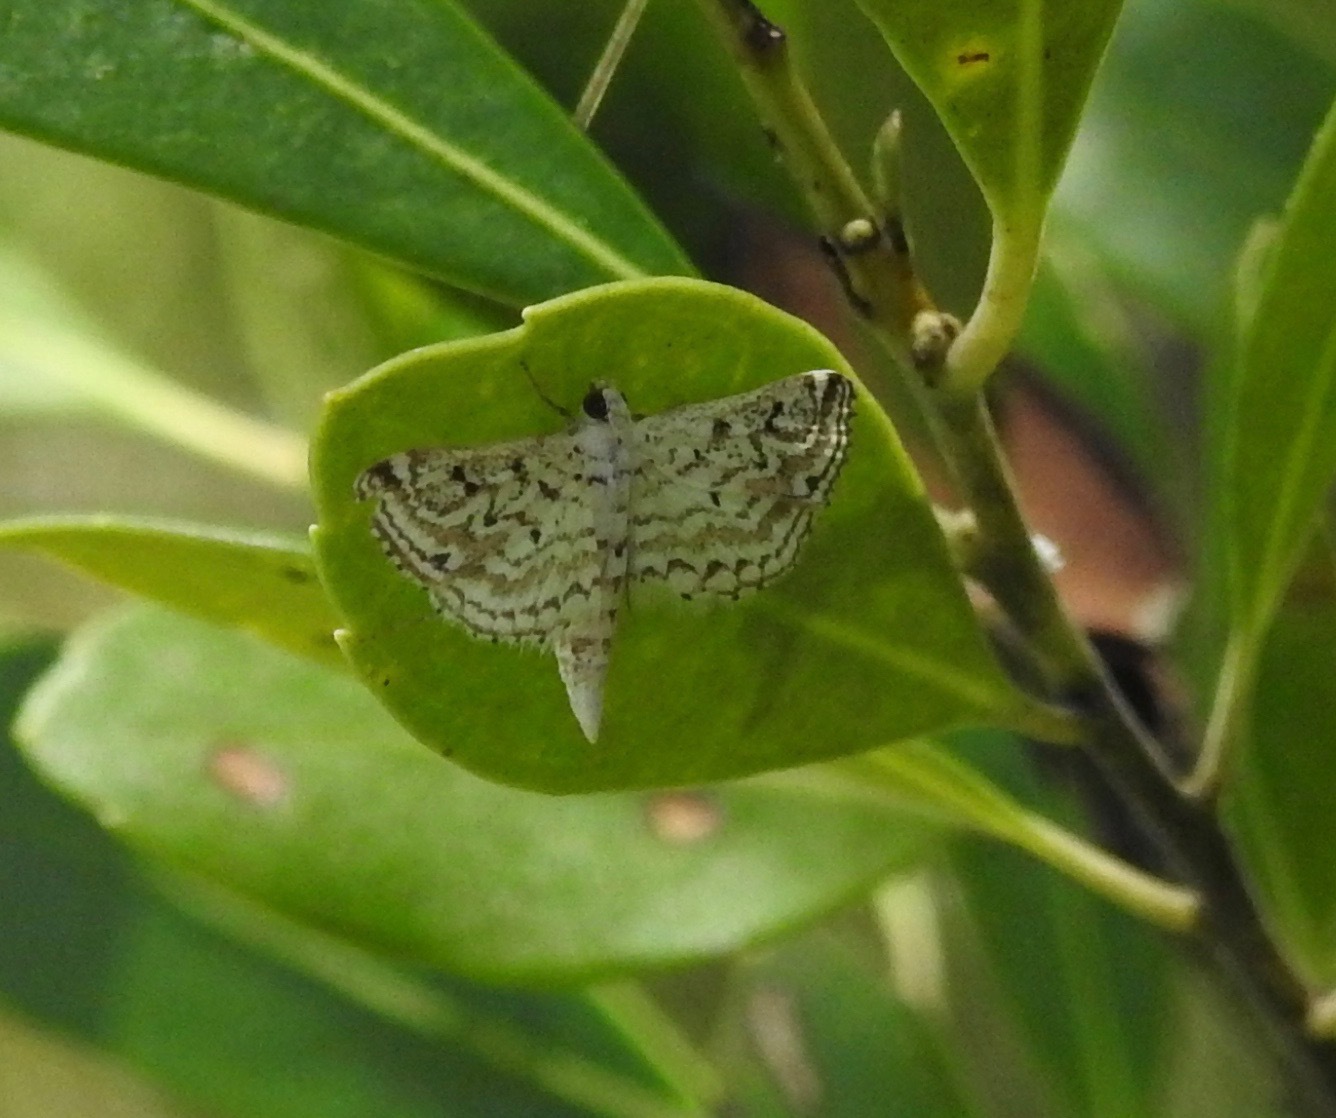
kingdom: Animalia
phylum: Arthropoda
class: Insecta
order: Lepidoptera
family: Crambidae
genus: Parapoynx
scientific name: Parapoynx allionealis
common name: Bladderwort casemaker
